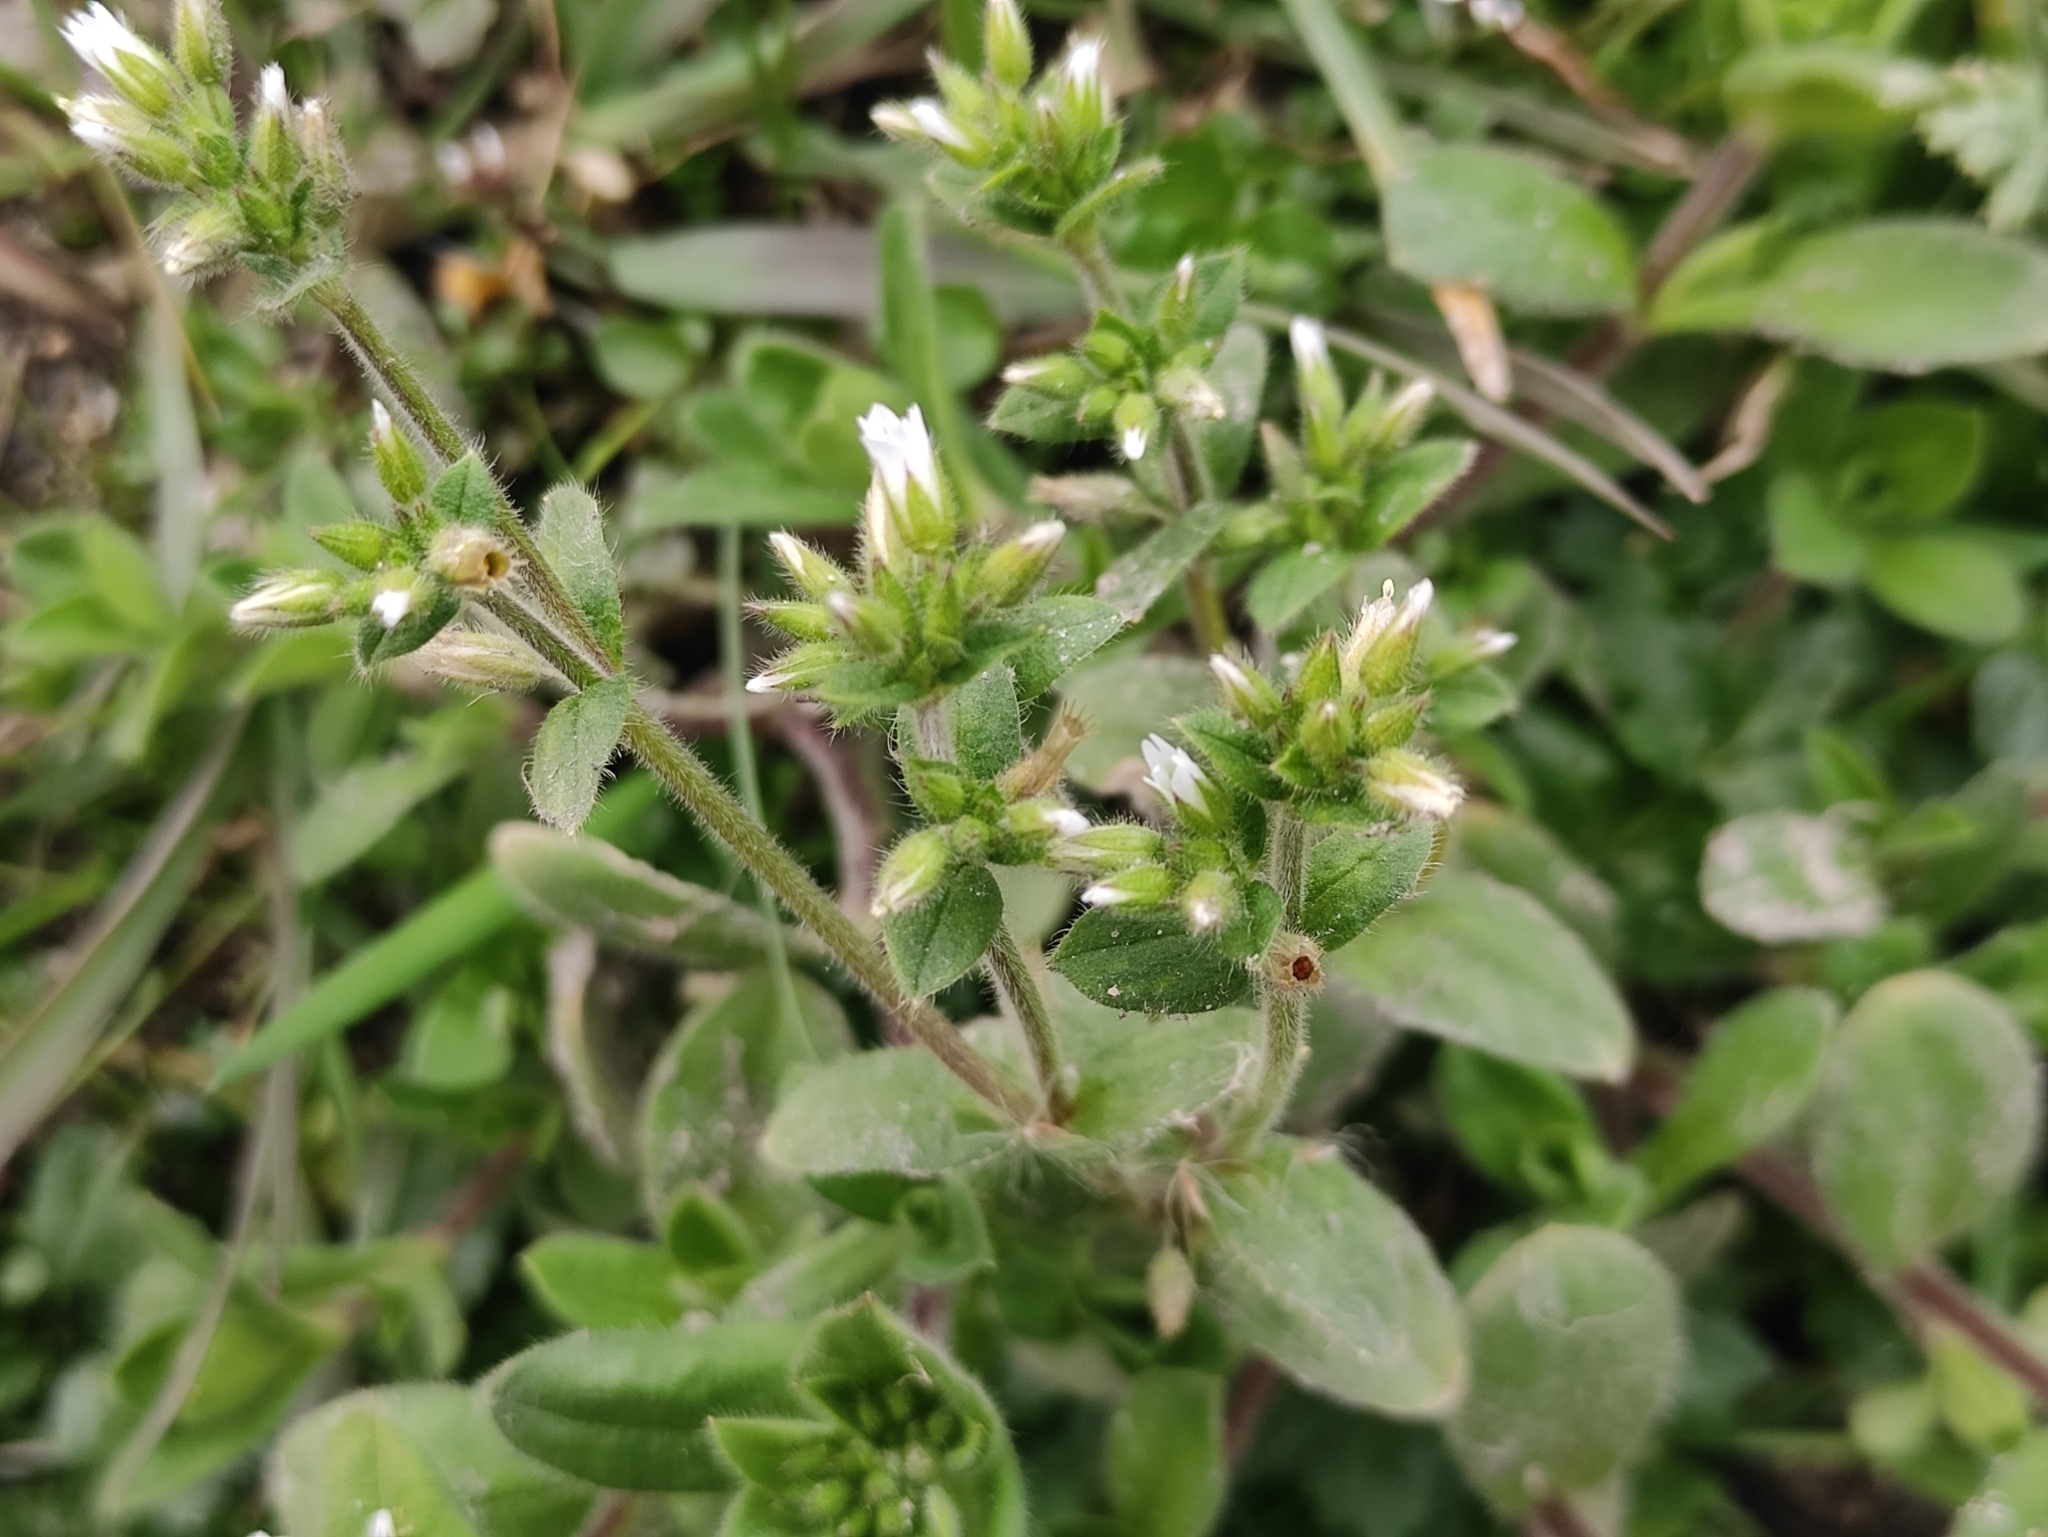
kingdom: Plantae
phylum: Tracheophyta
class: Magnoliopsida
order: Caryophyllales
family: Caryophyllaceae
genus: Cerastium
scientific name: Cerastium glomeratum
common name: Sticky chickweed
